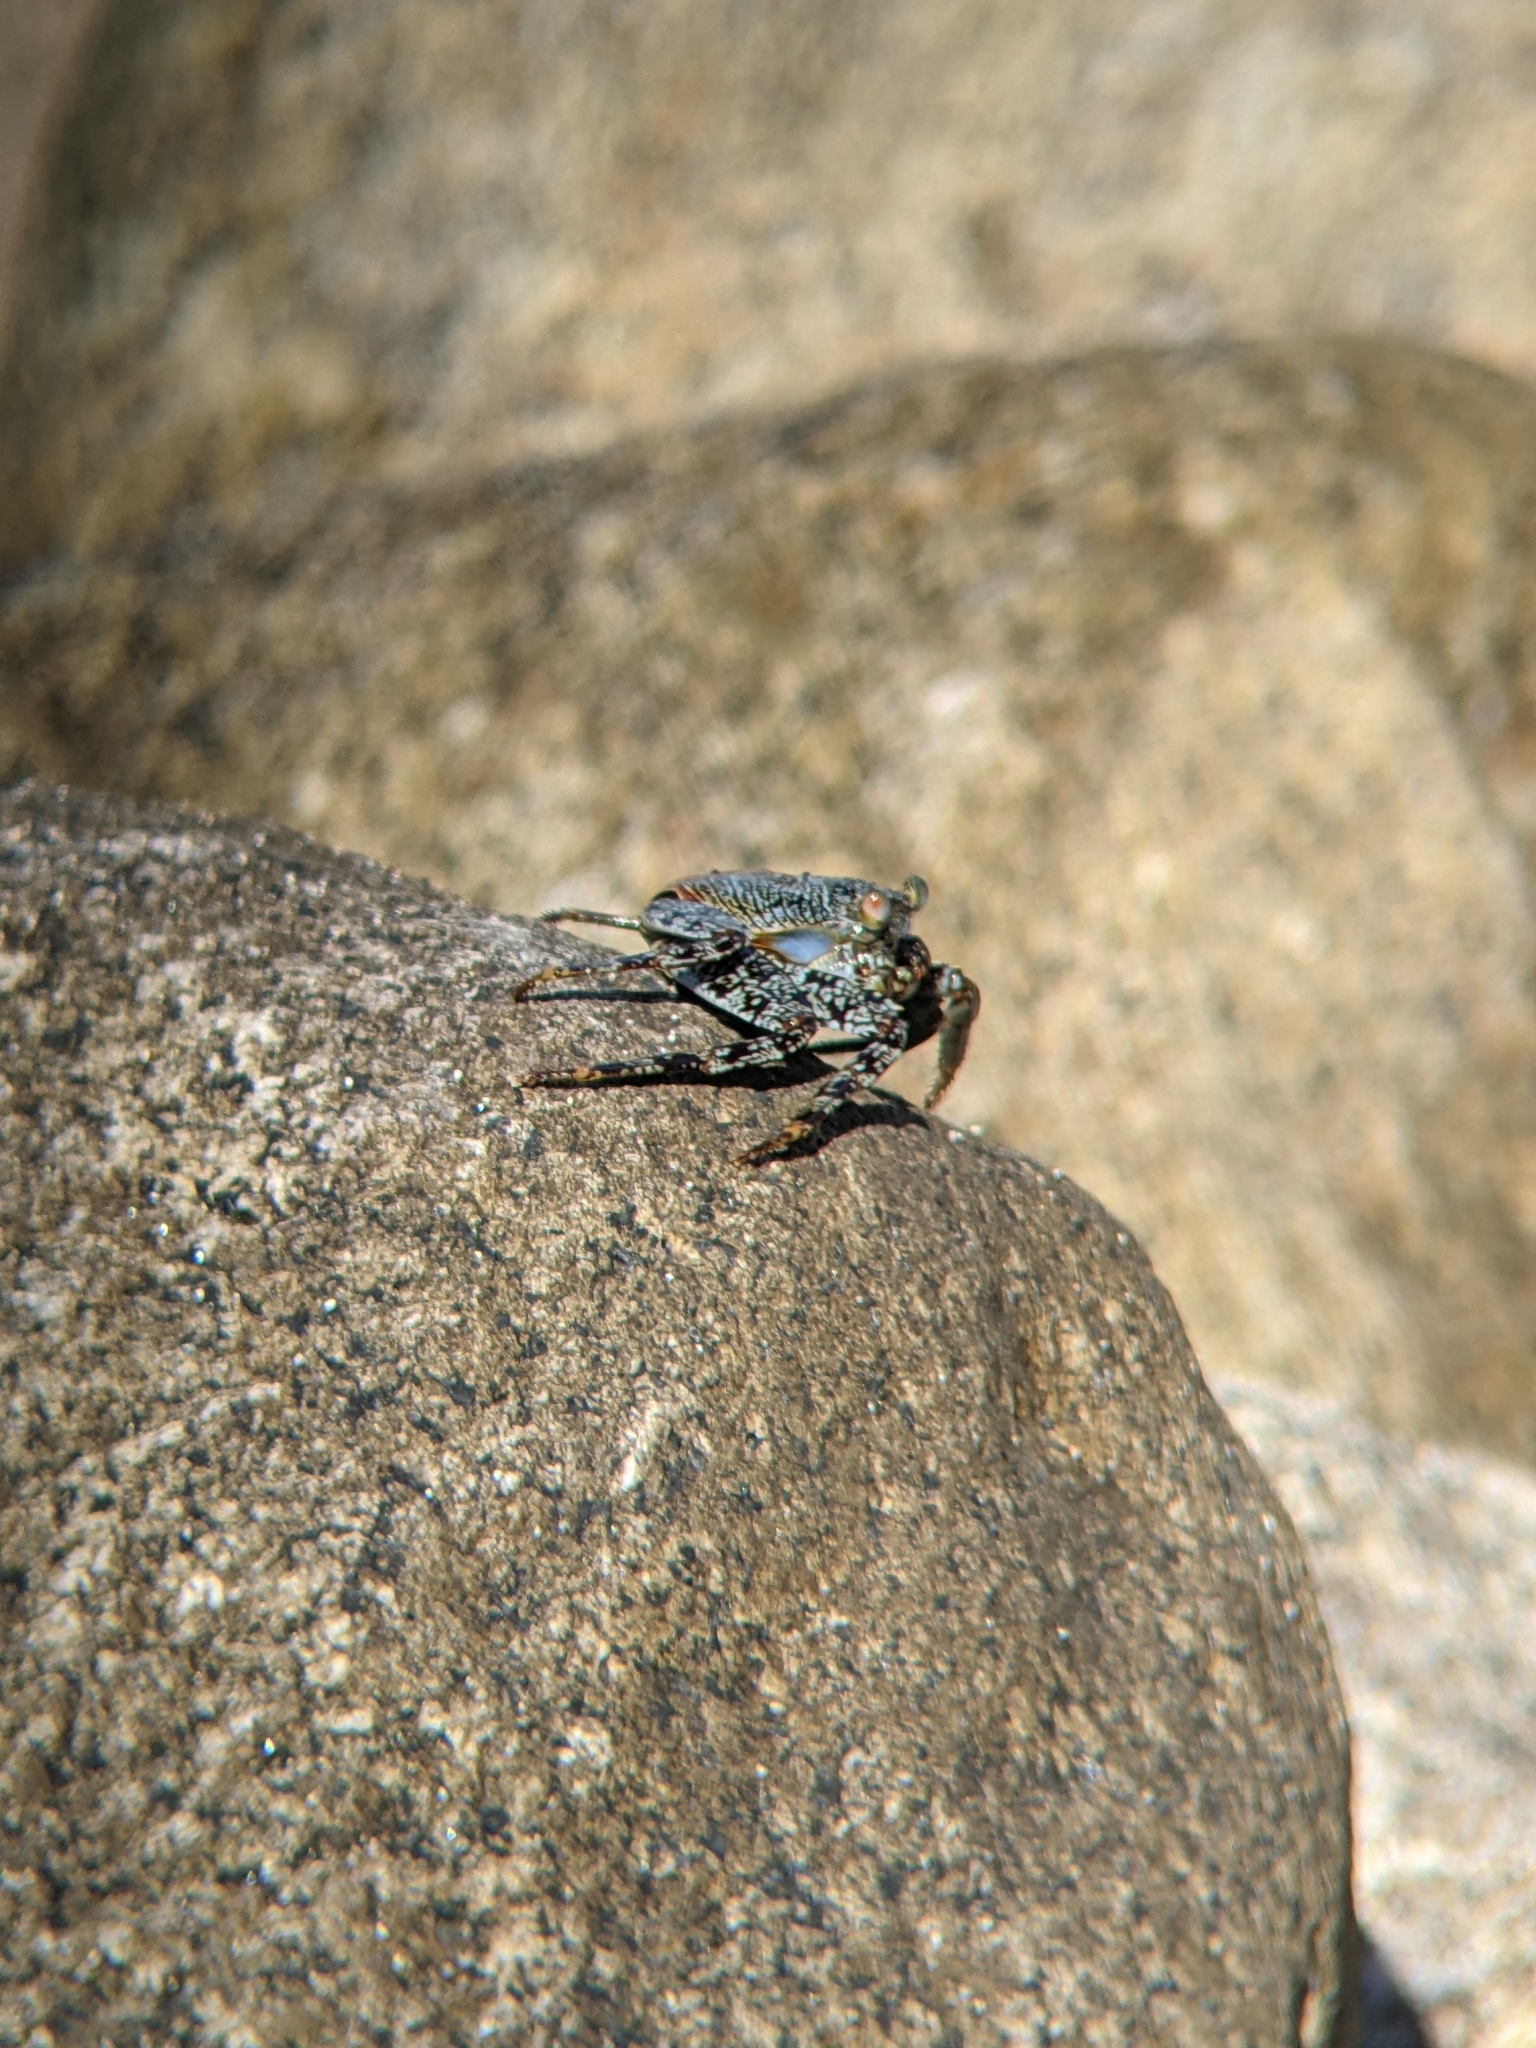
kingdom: Animalia
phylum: Arthropoda
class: Malacostraca
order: Decapoda
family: Grapsidae
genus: Grapsus
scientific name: Grapsus grapsus
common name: Sally lightfoot
